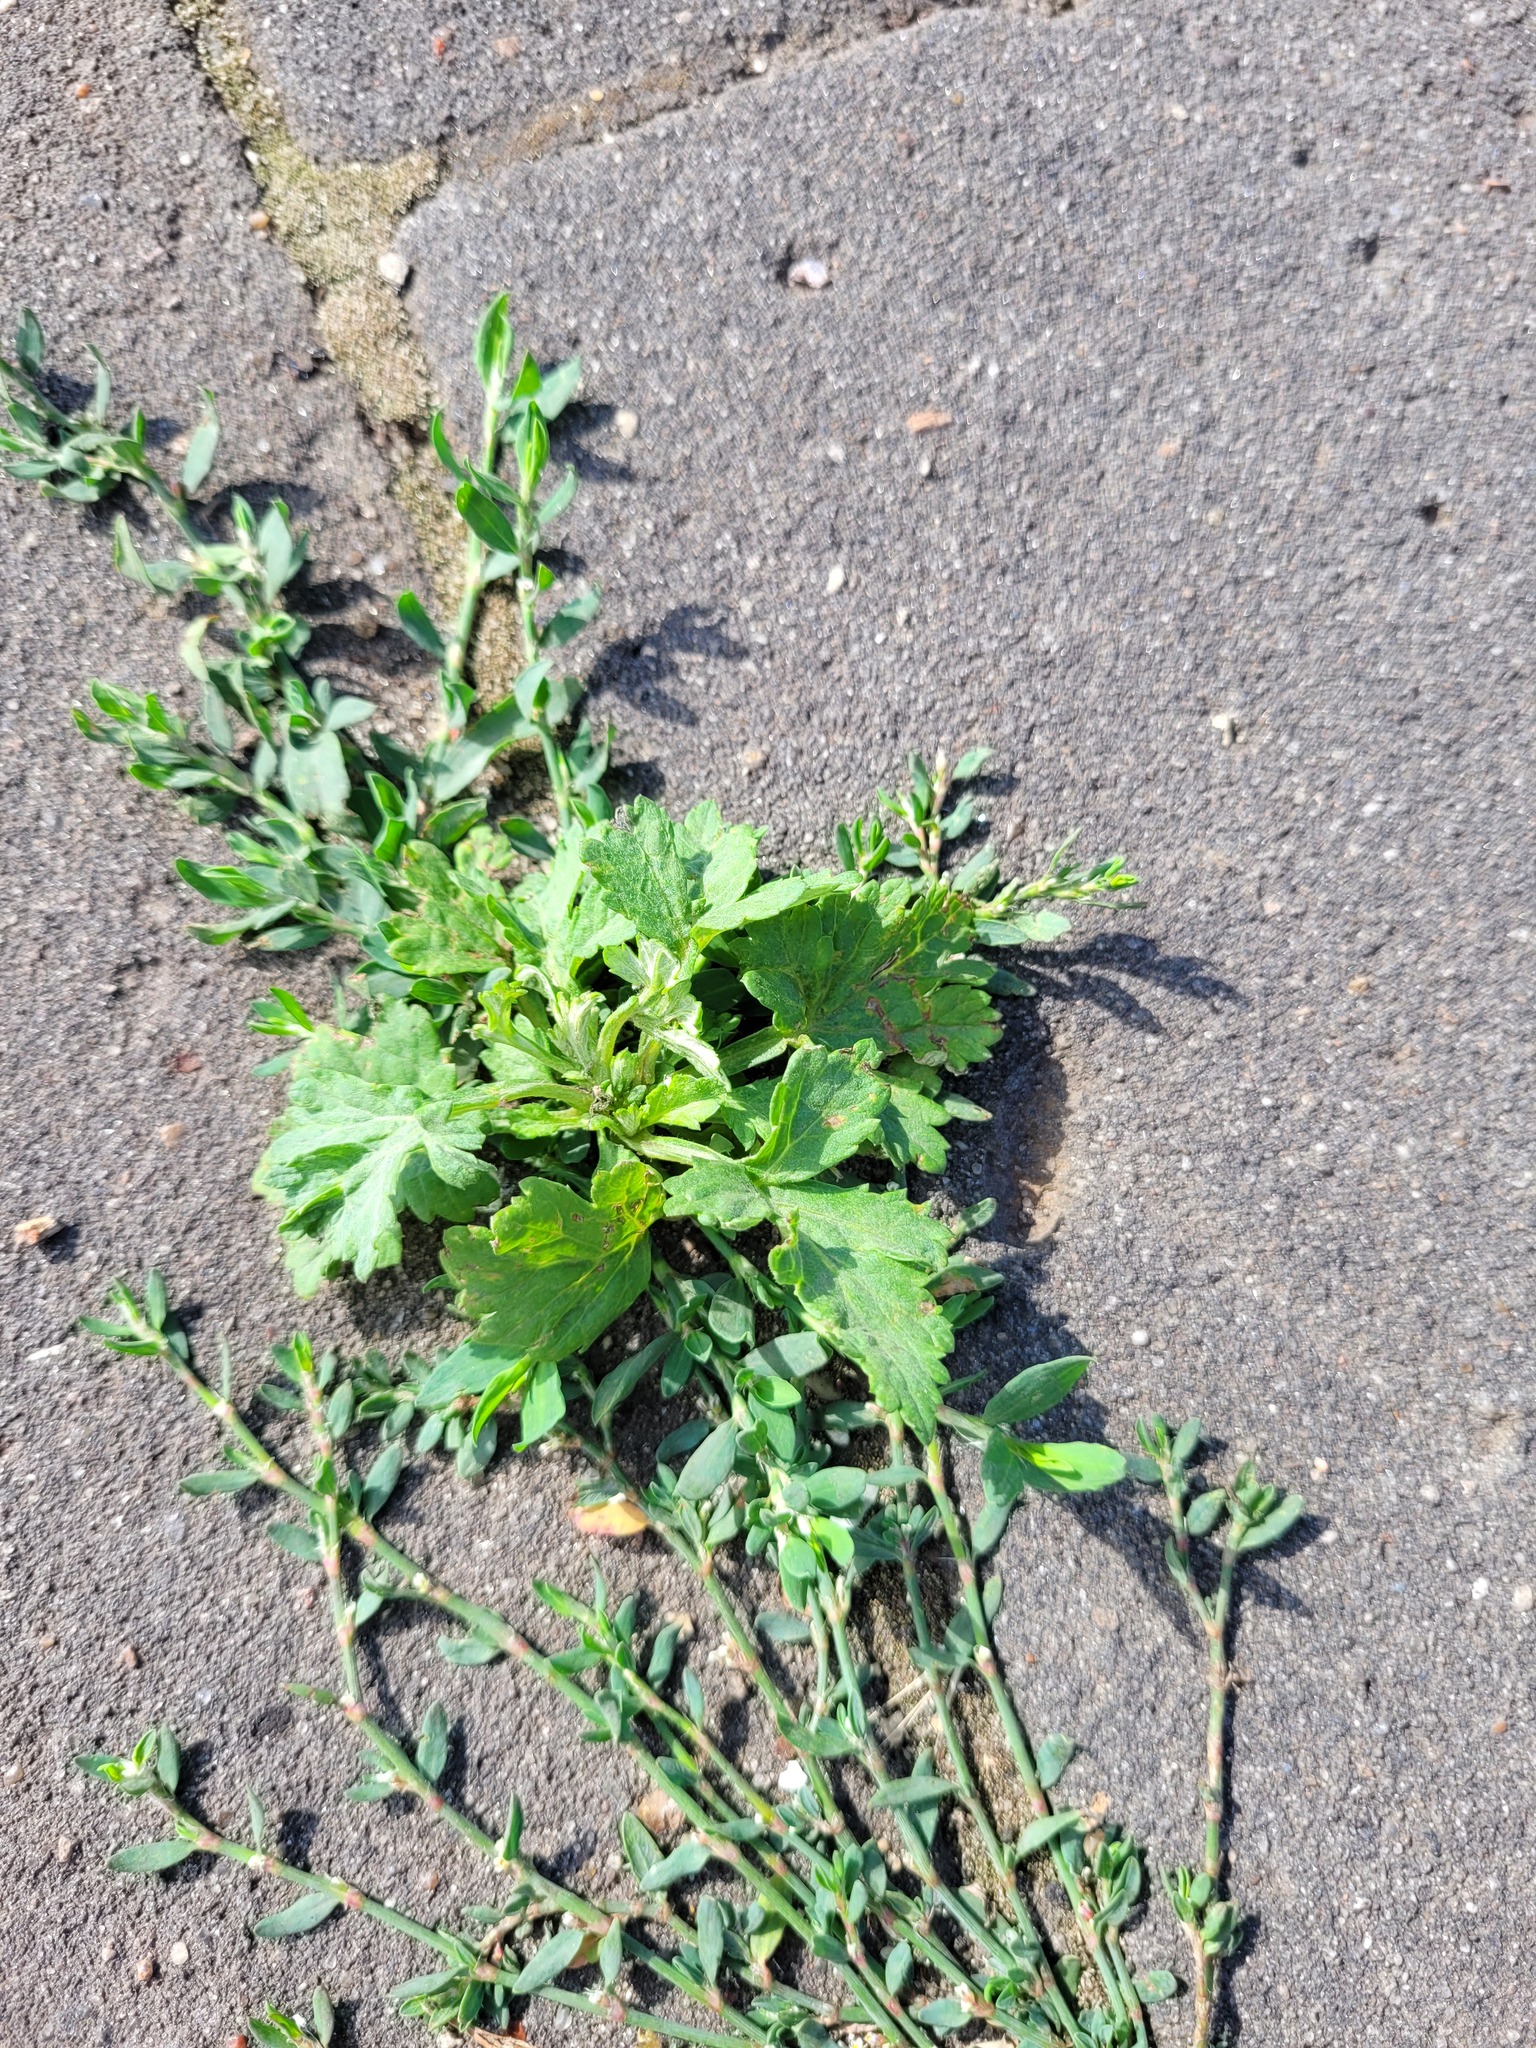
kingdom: Plantae
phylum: Tracheophyta
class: Magnoliopsida
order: Asterales
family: Asteraceae
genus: Artemisia
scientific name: Artemisia vulgaris
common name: Mugwort
